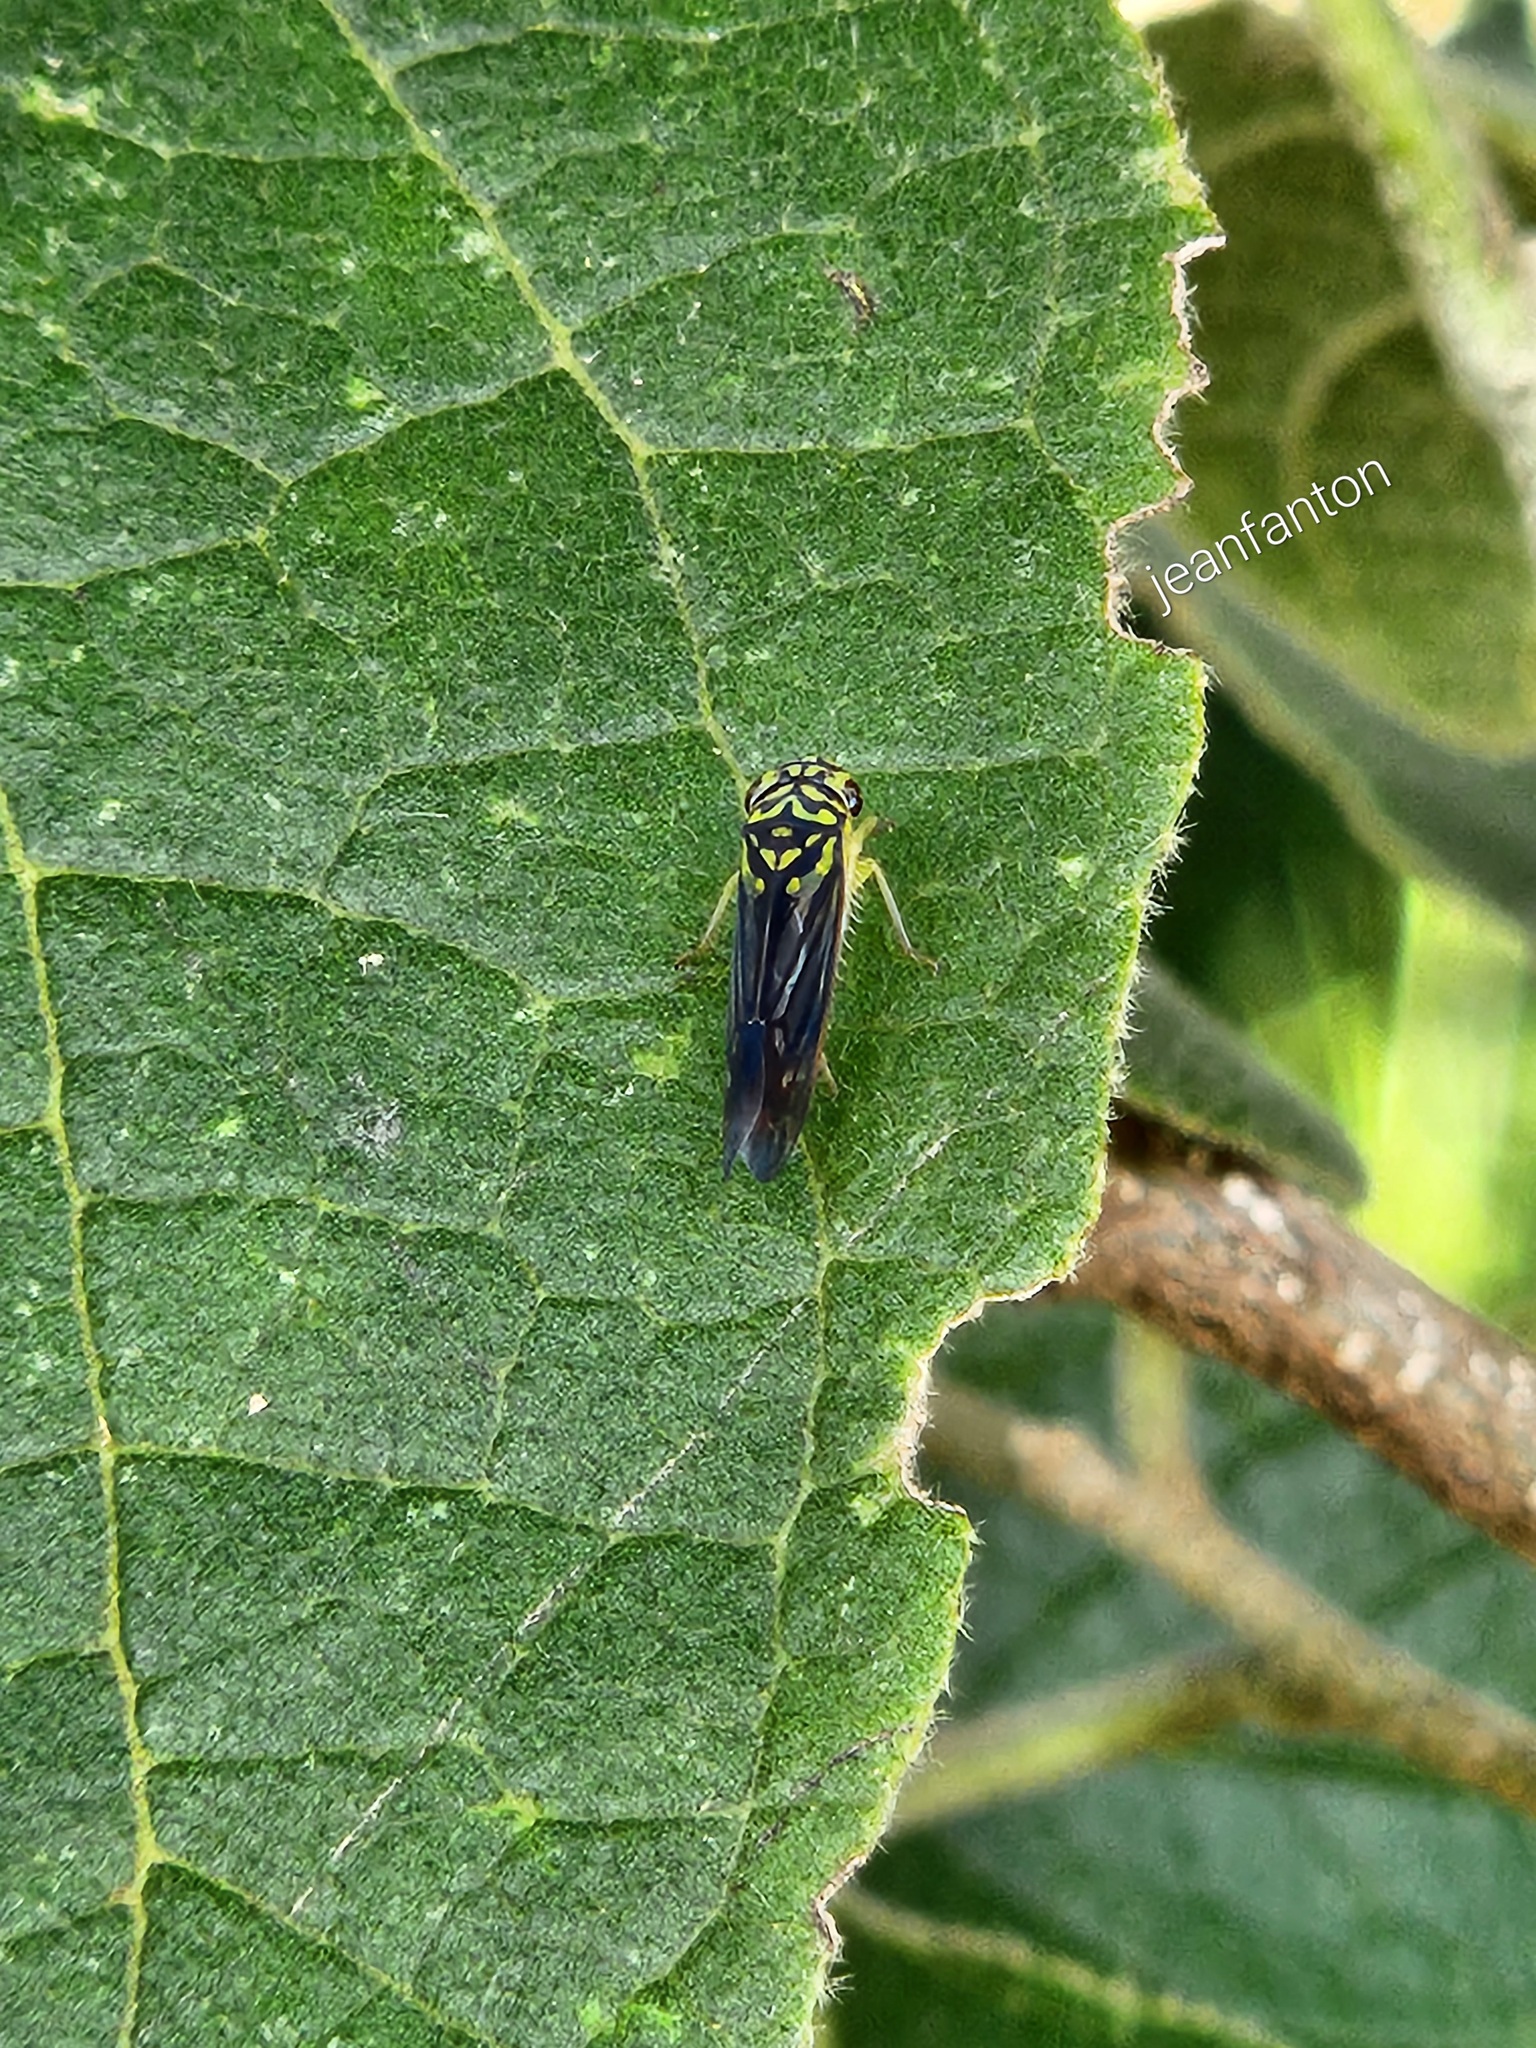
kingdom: Animalia
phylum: Arthropoda
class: Insecta
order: Hemiptera
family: Cicadellidae
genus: Dilobopterus
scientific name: Dilobopterus costalimai
